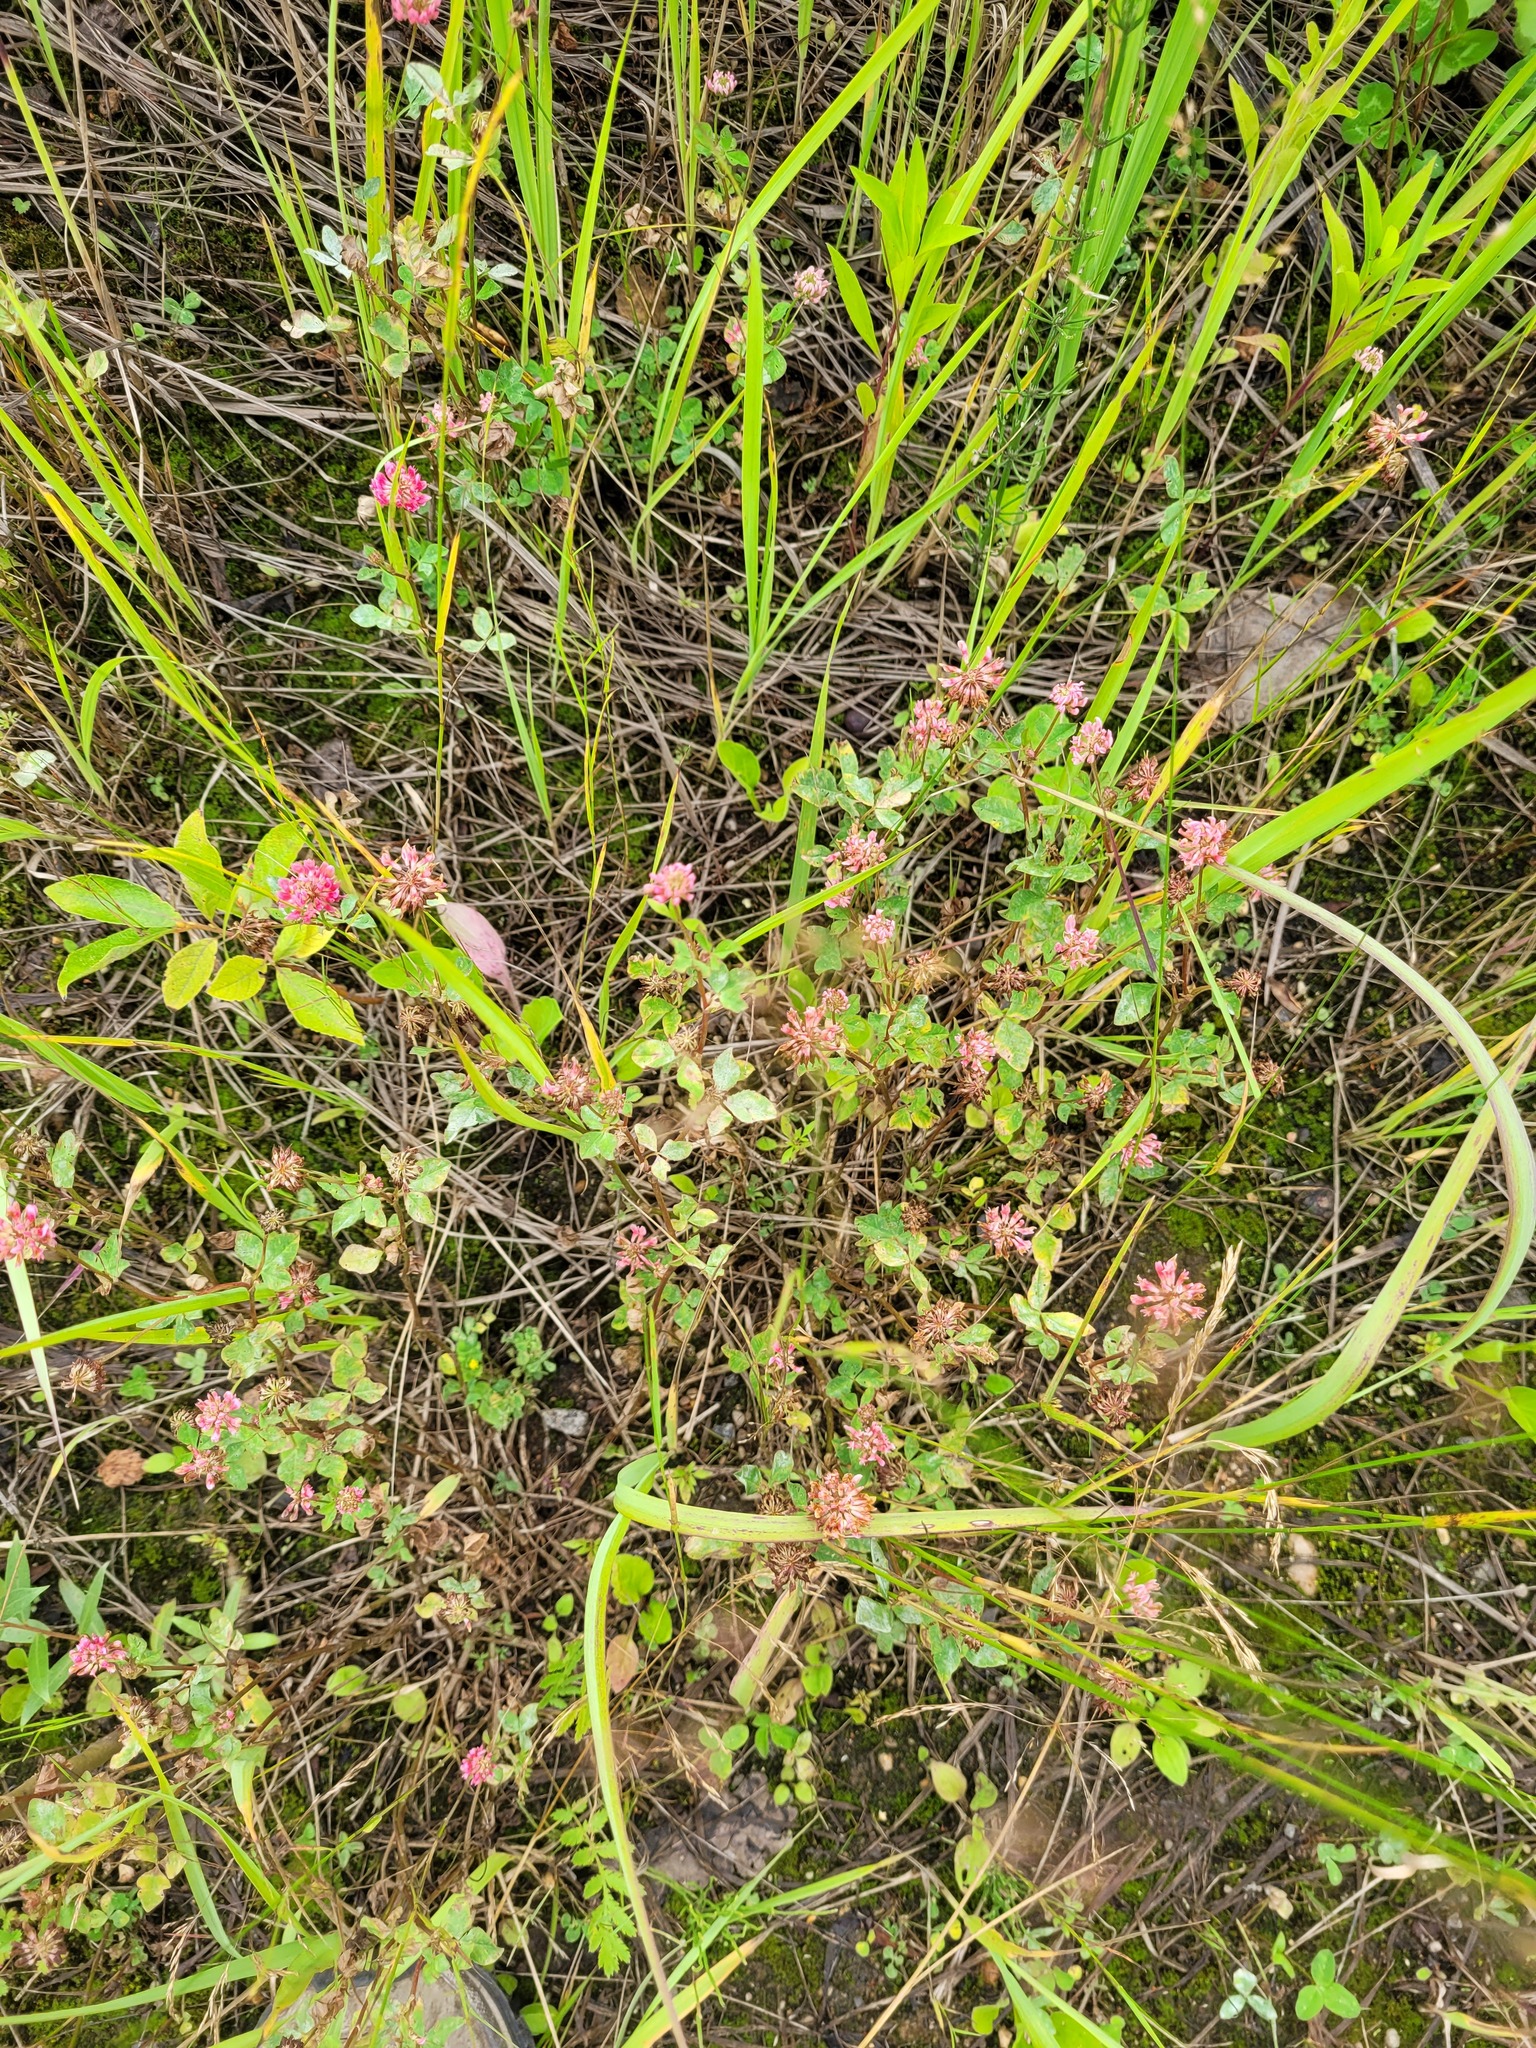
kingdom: Plantae
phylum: Tracheophyta
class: Magnoliopsida
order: Fabales
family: Fabaceae
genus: Trifolium
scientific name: Trifolium hybridum
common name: Alsike clover
